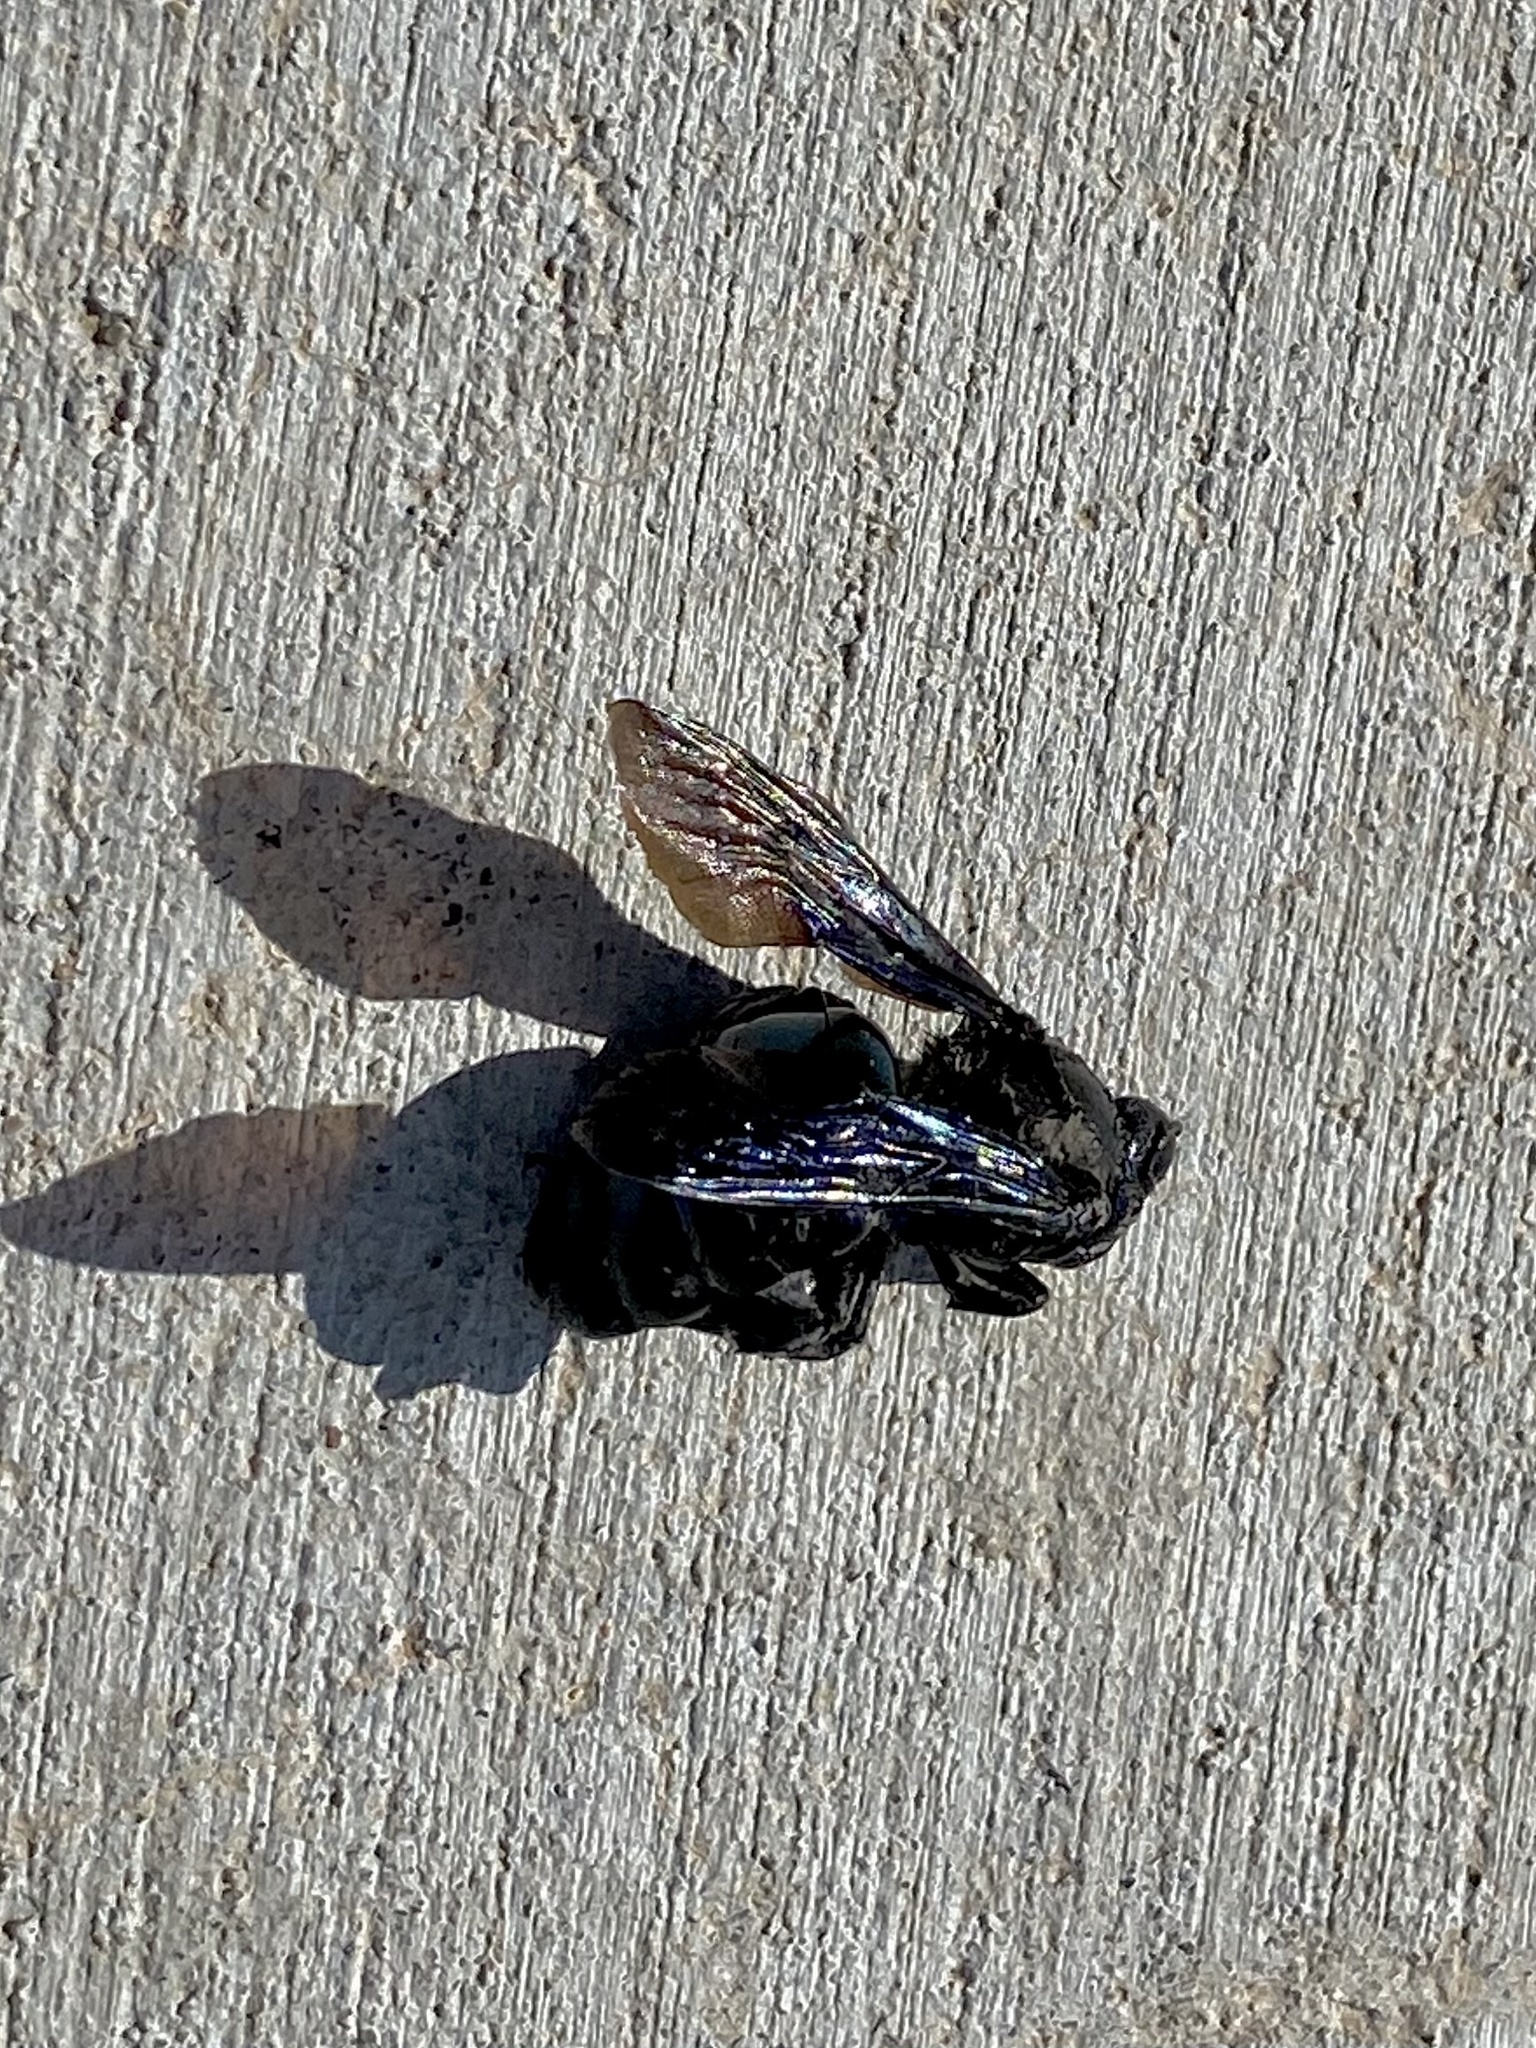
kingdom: Animalia
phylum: Arthropoda
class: Insecta
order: Hymenoptera
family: Apidae
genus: Xylocopa
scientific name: Xylocopa californica
